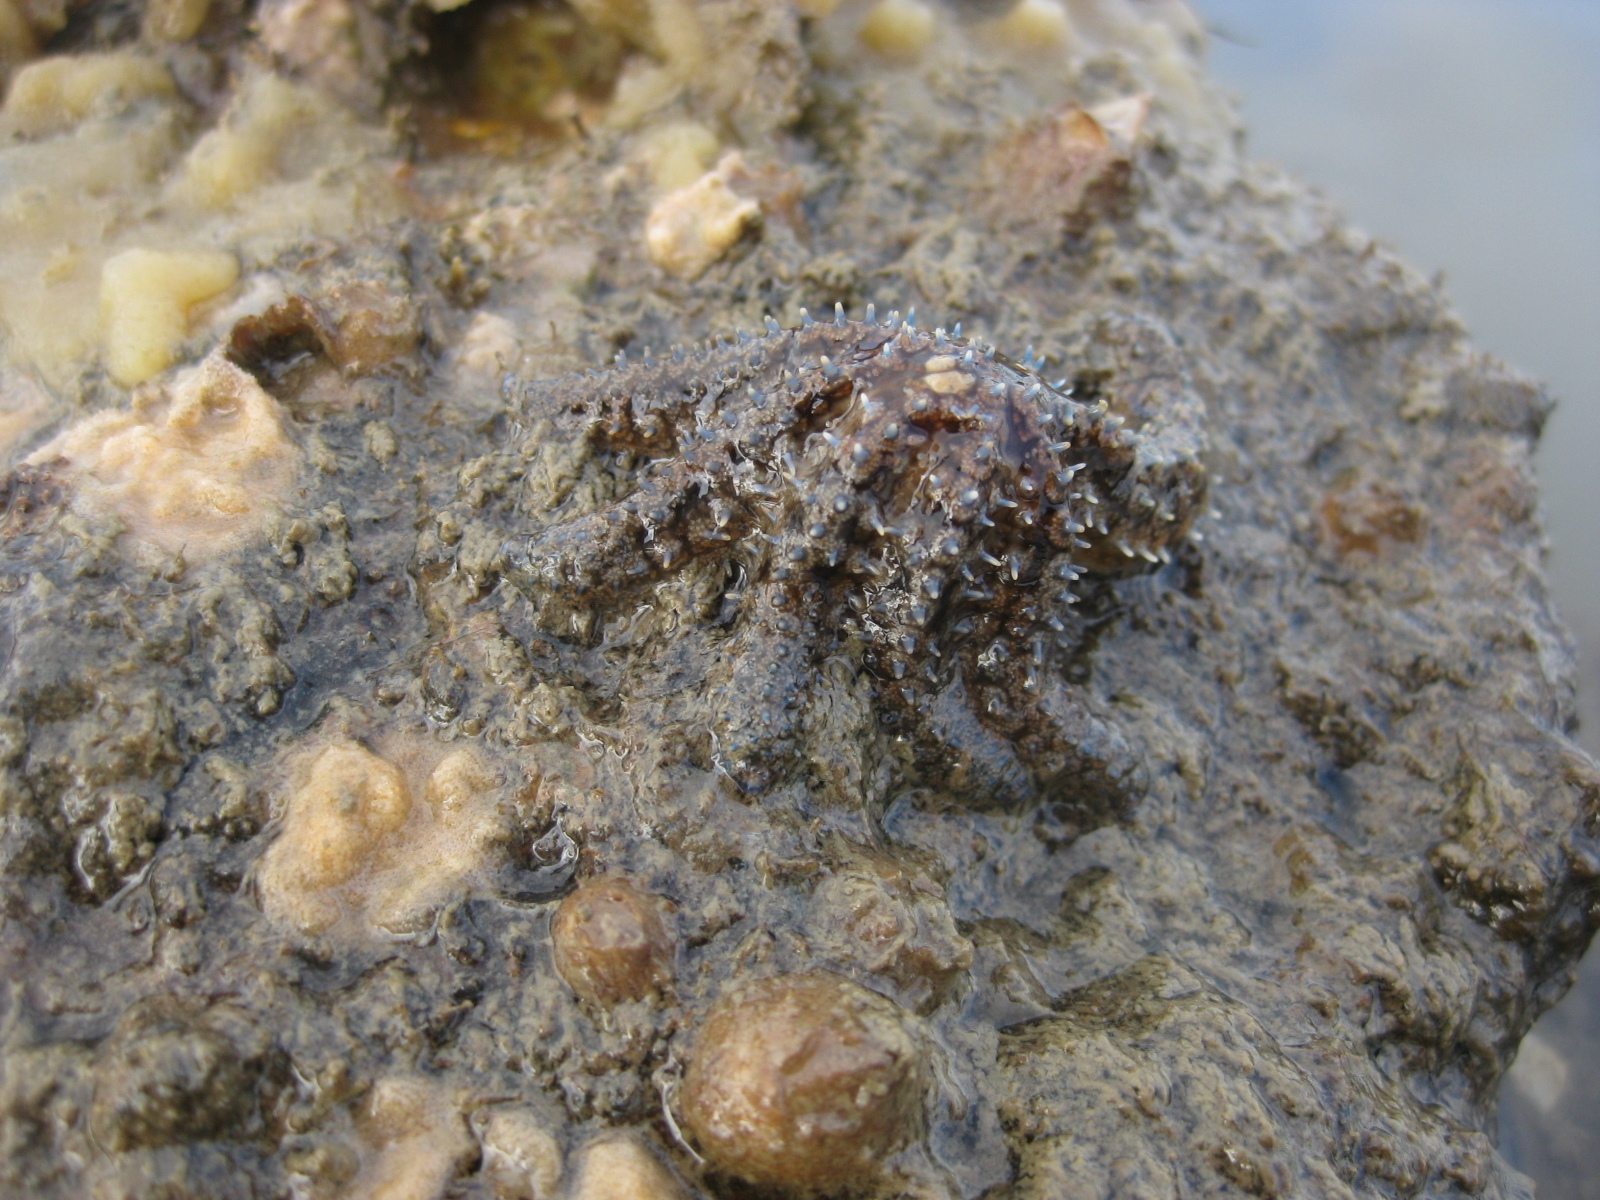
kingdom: Animalia
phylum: Echinodermata
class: Asteroidea
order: Forcipulatida
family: Asteriidae
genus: Coscinasterias
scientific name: Coscinasterias muricata
